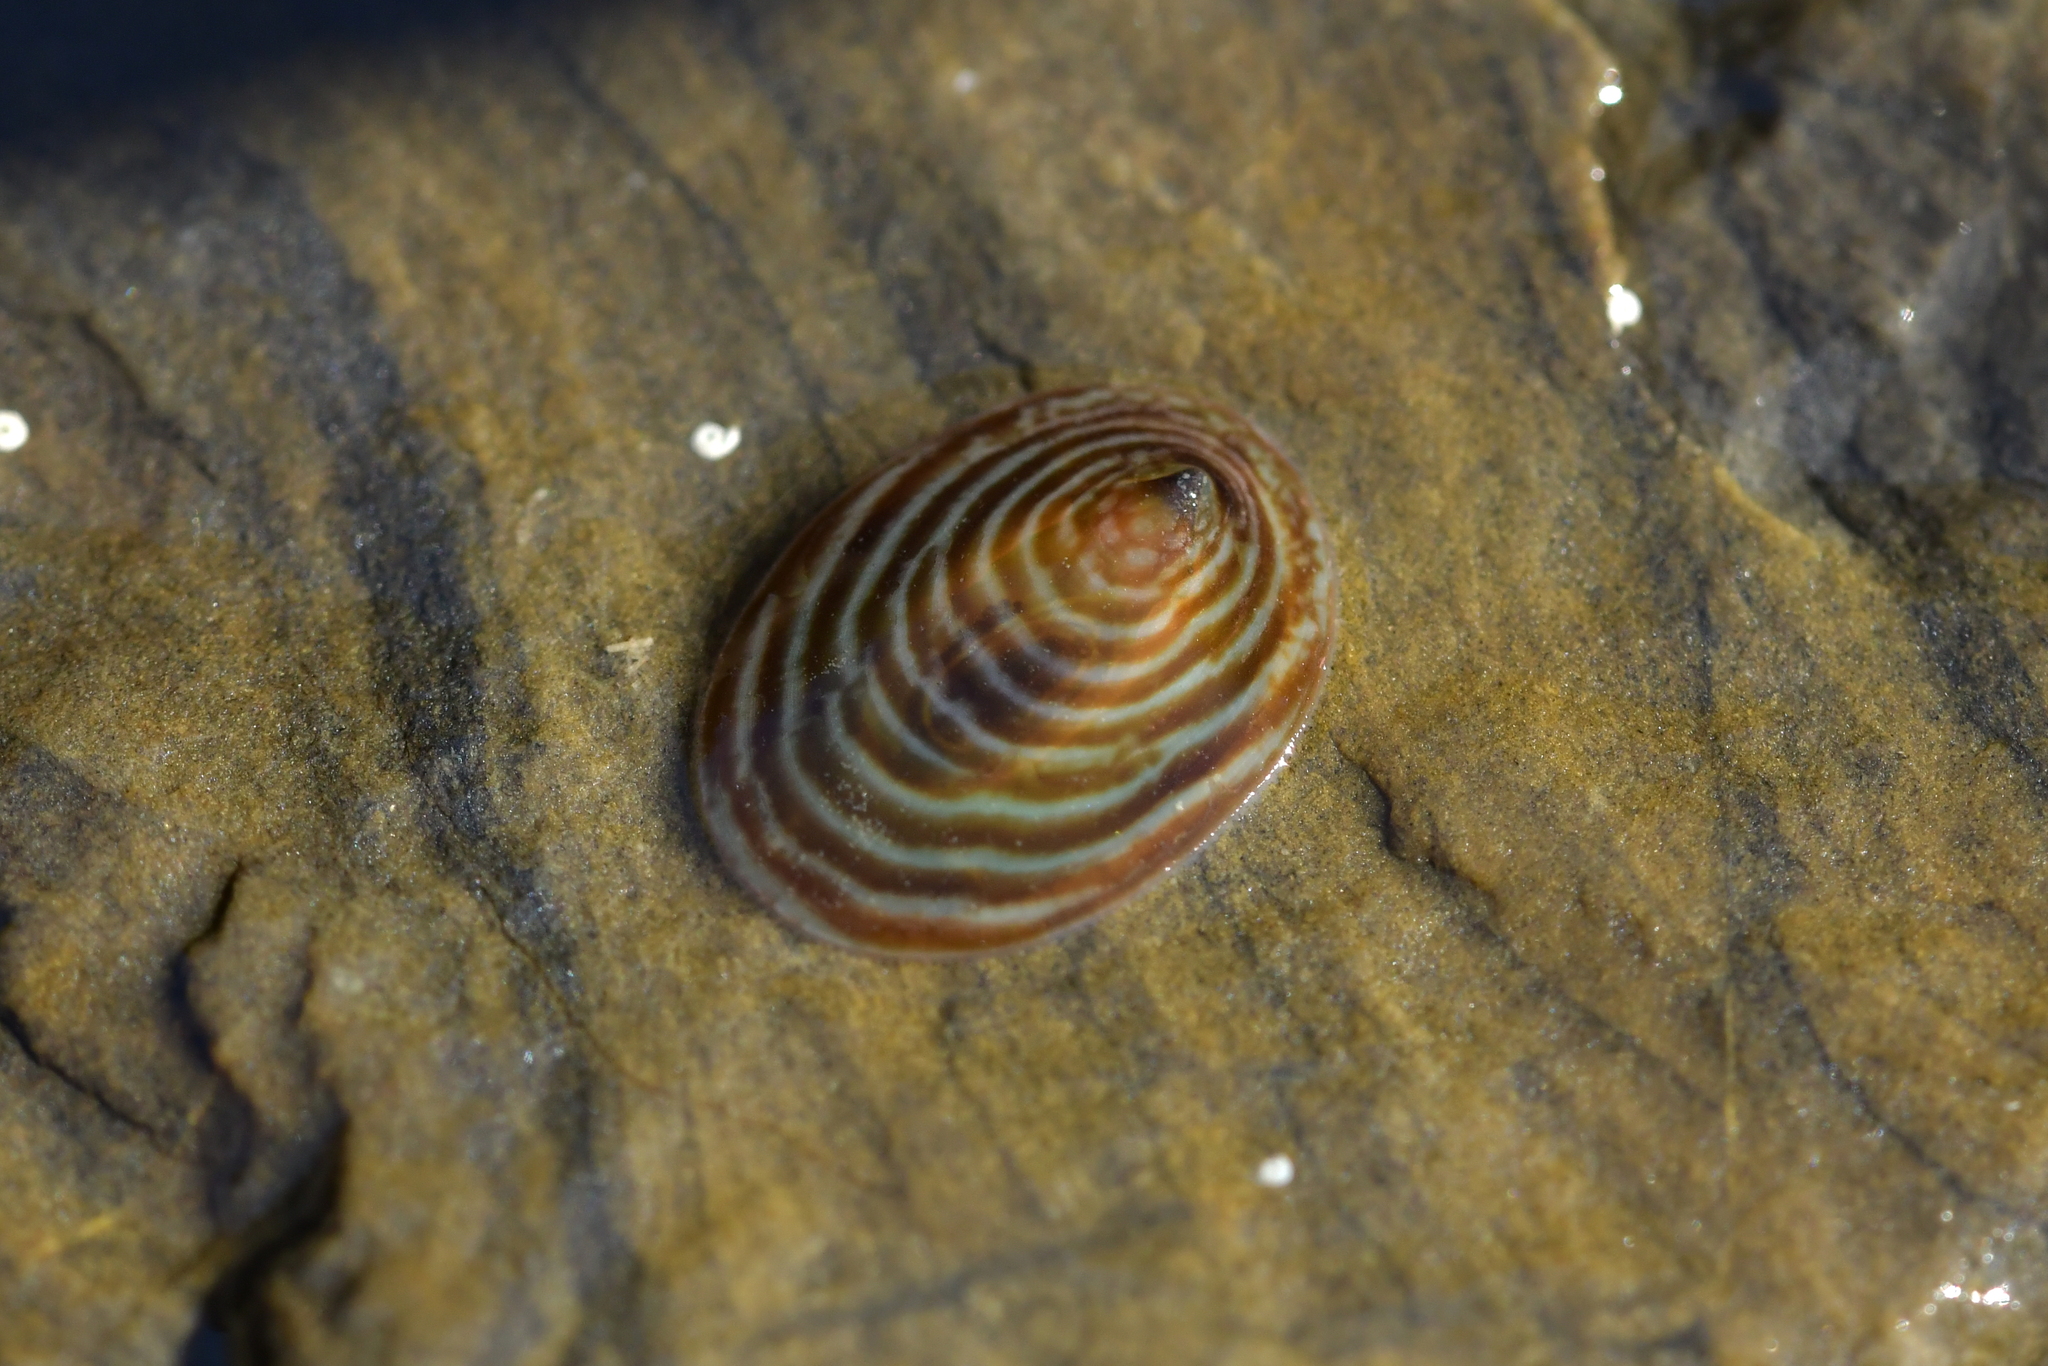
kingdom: Animalia
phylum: Mollusca
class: Gastropoda
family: Lottiidae
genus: Atalacmea
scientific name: Atalacmea fragilis
